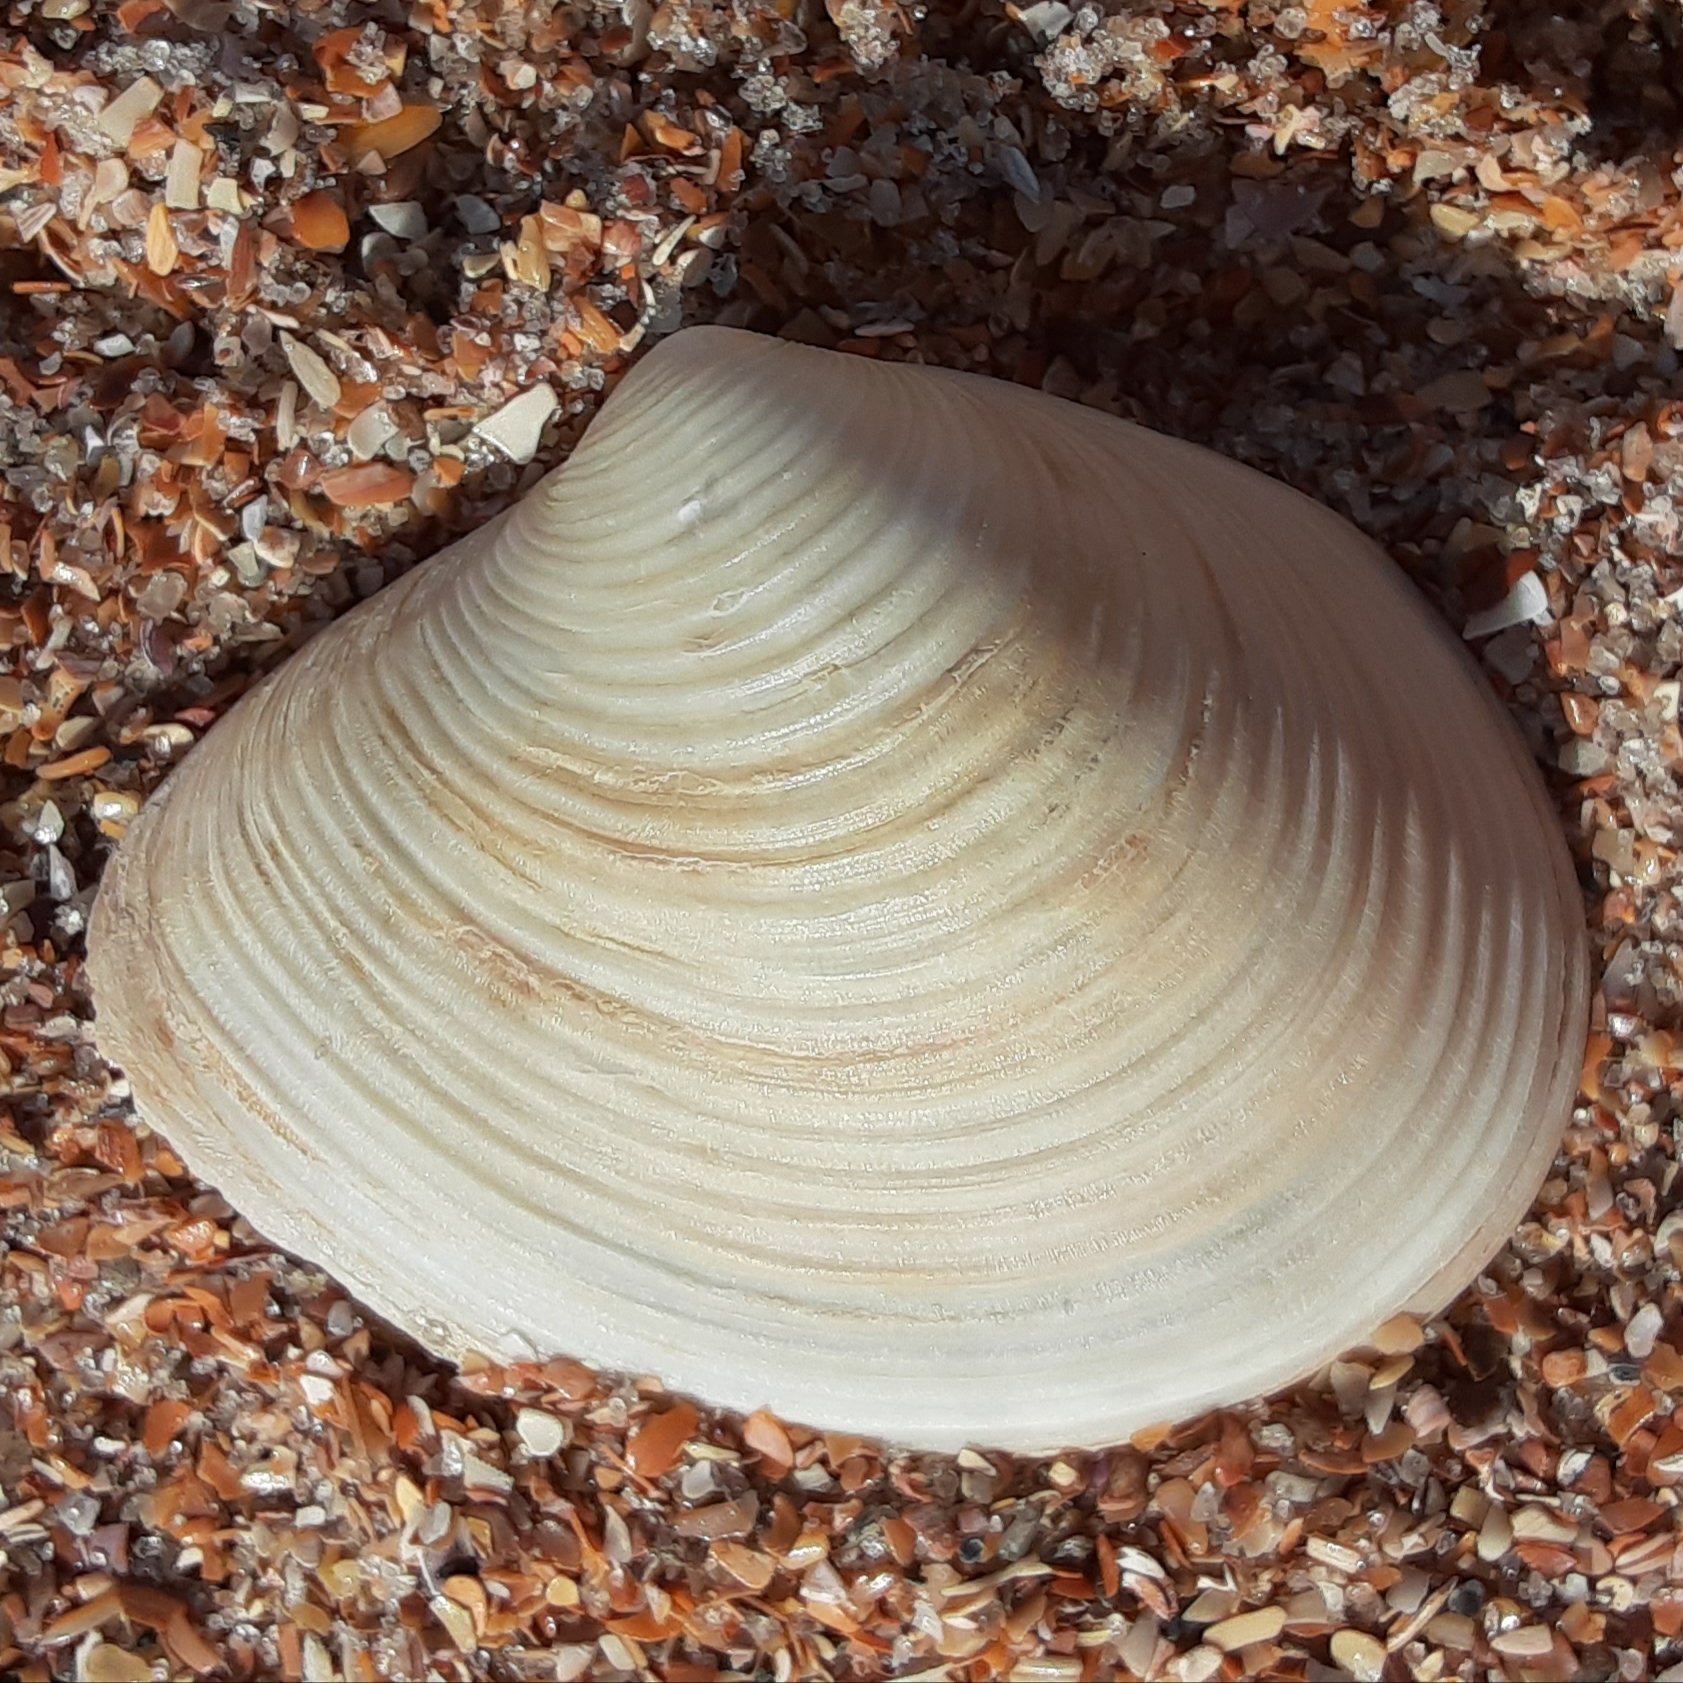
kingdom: Animalia
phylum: Mollusca
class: Bivalvia
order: Venerida
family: Anatinellidae
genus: Raeta
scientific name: Raeta plicatella
